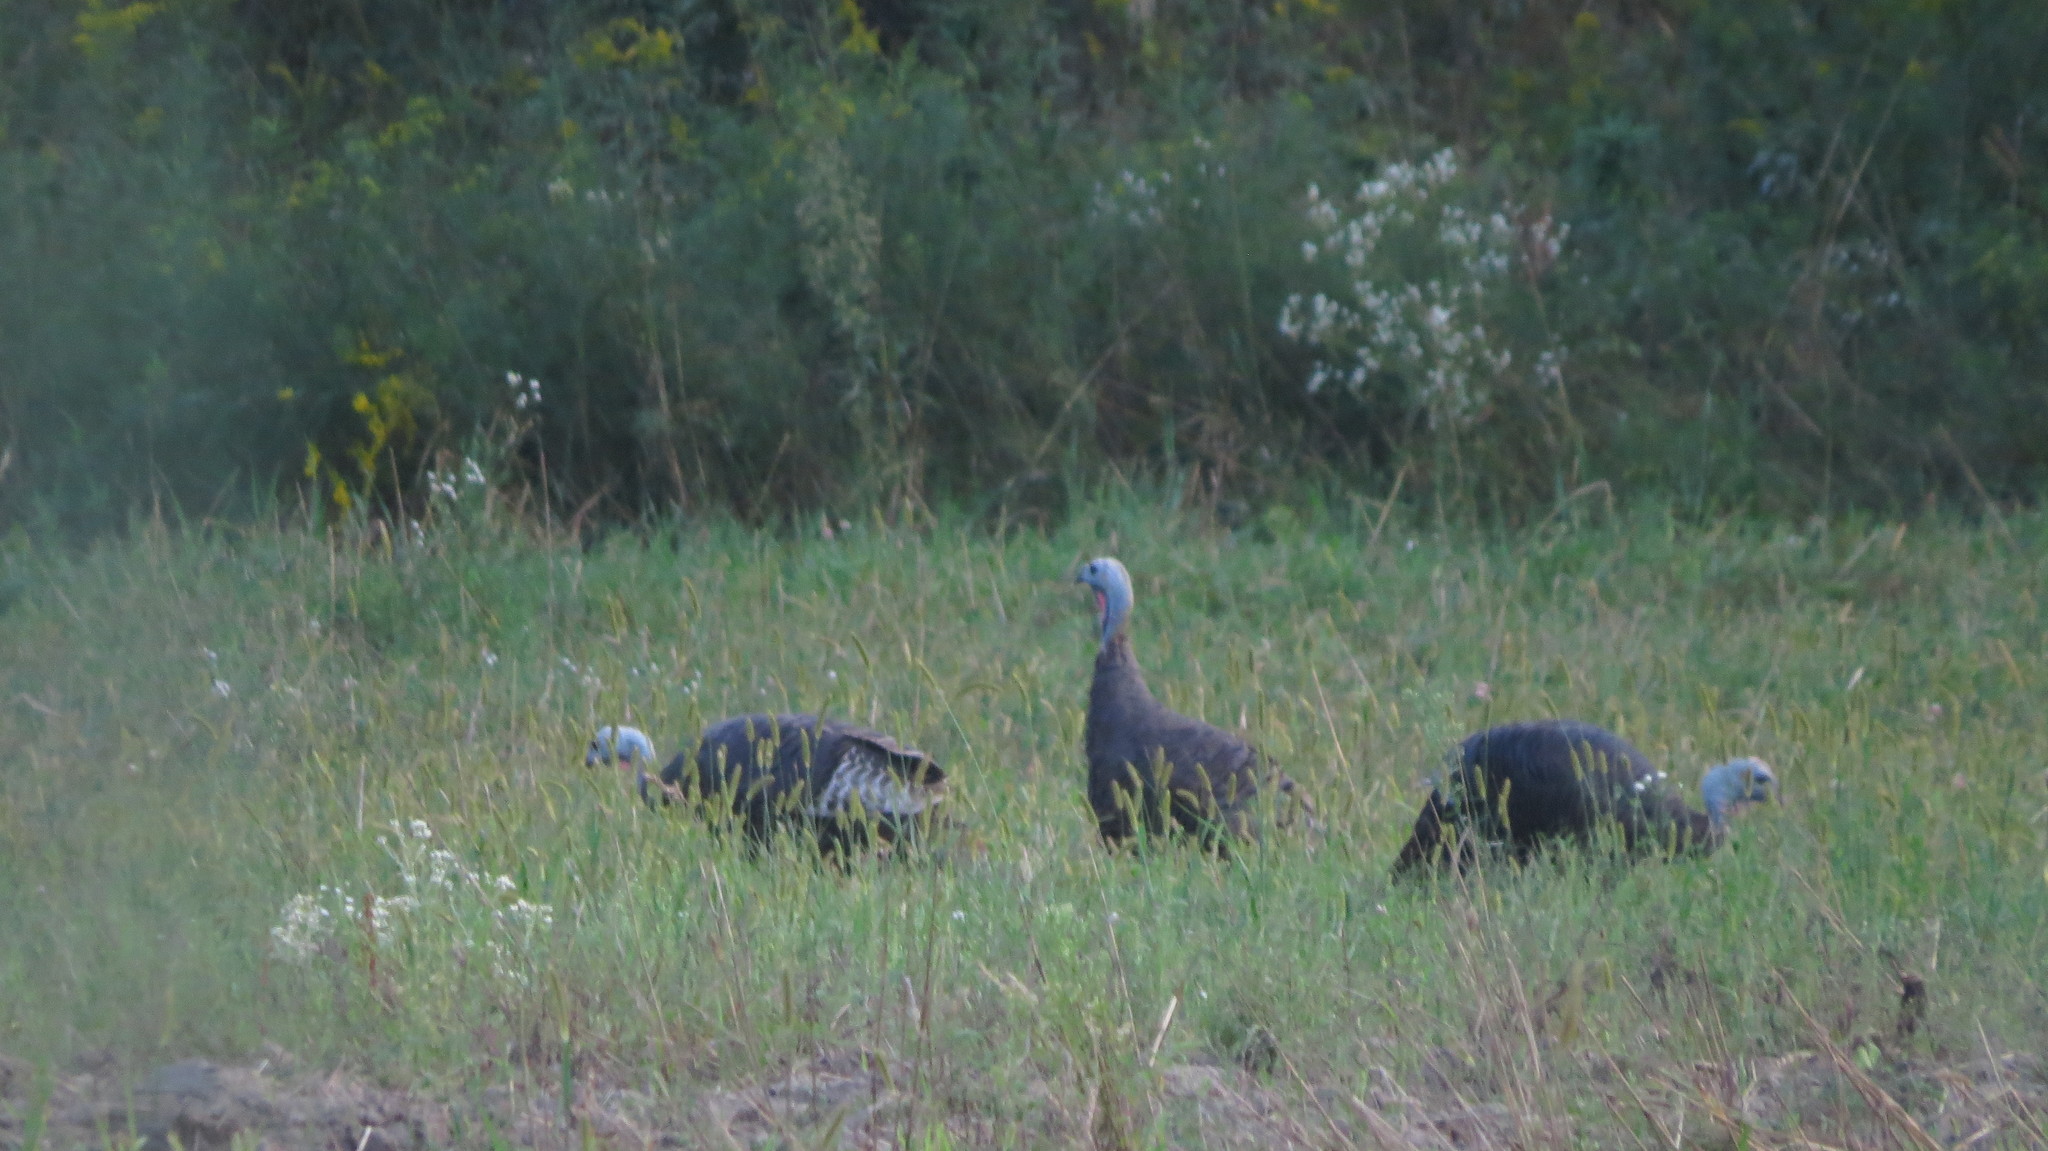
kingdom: Animalia
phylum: Chordata
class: Aves
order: Galliformes
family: Phasianidae
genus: Meleagris
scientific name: Meleagris gallopavo
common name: Wild turkey
